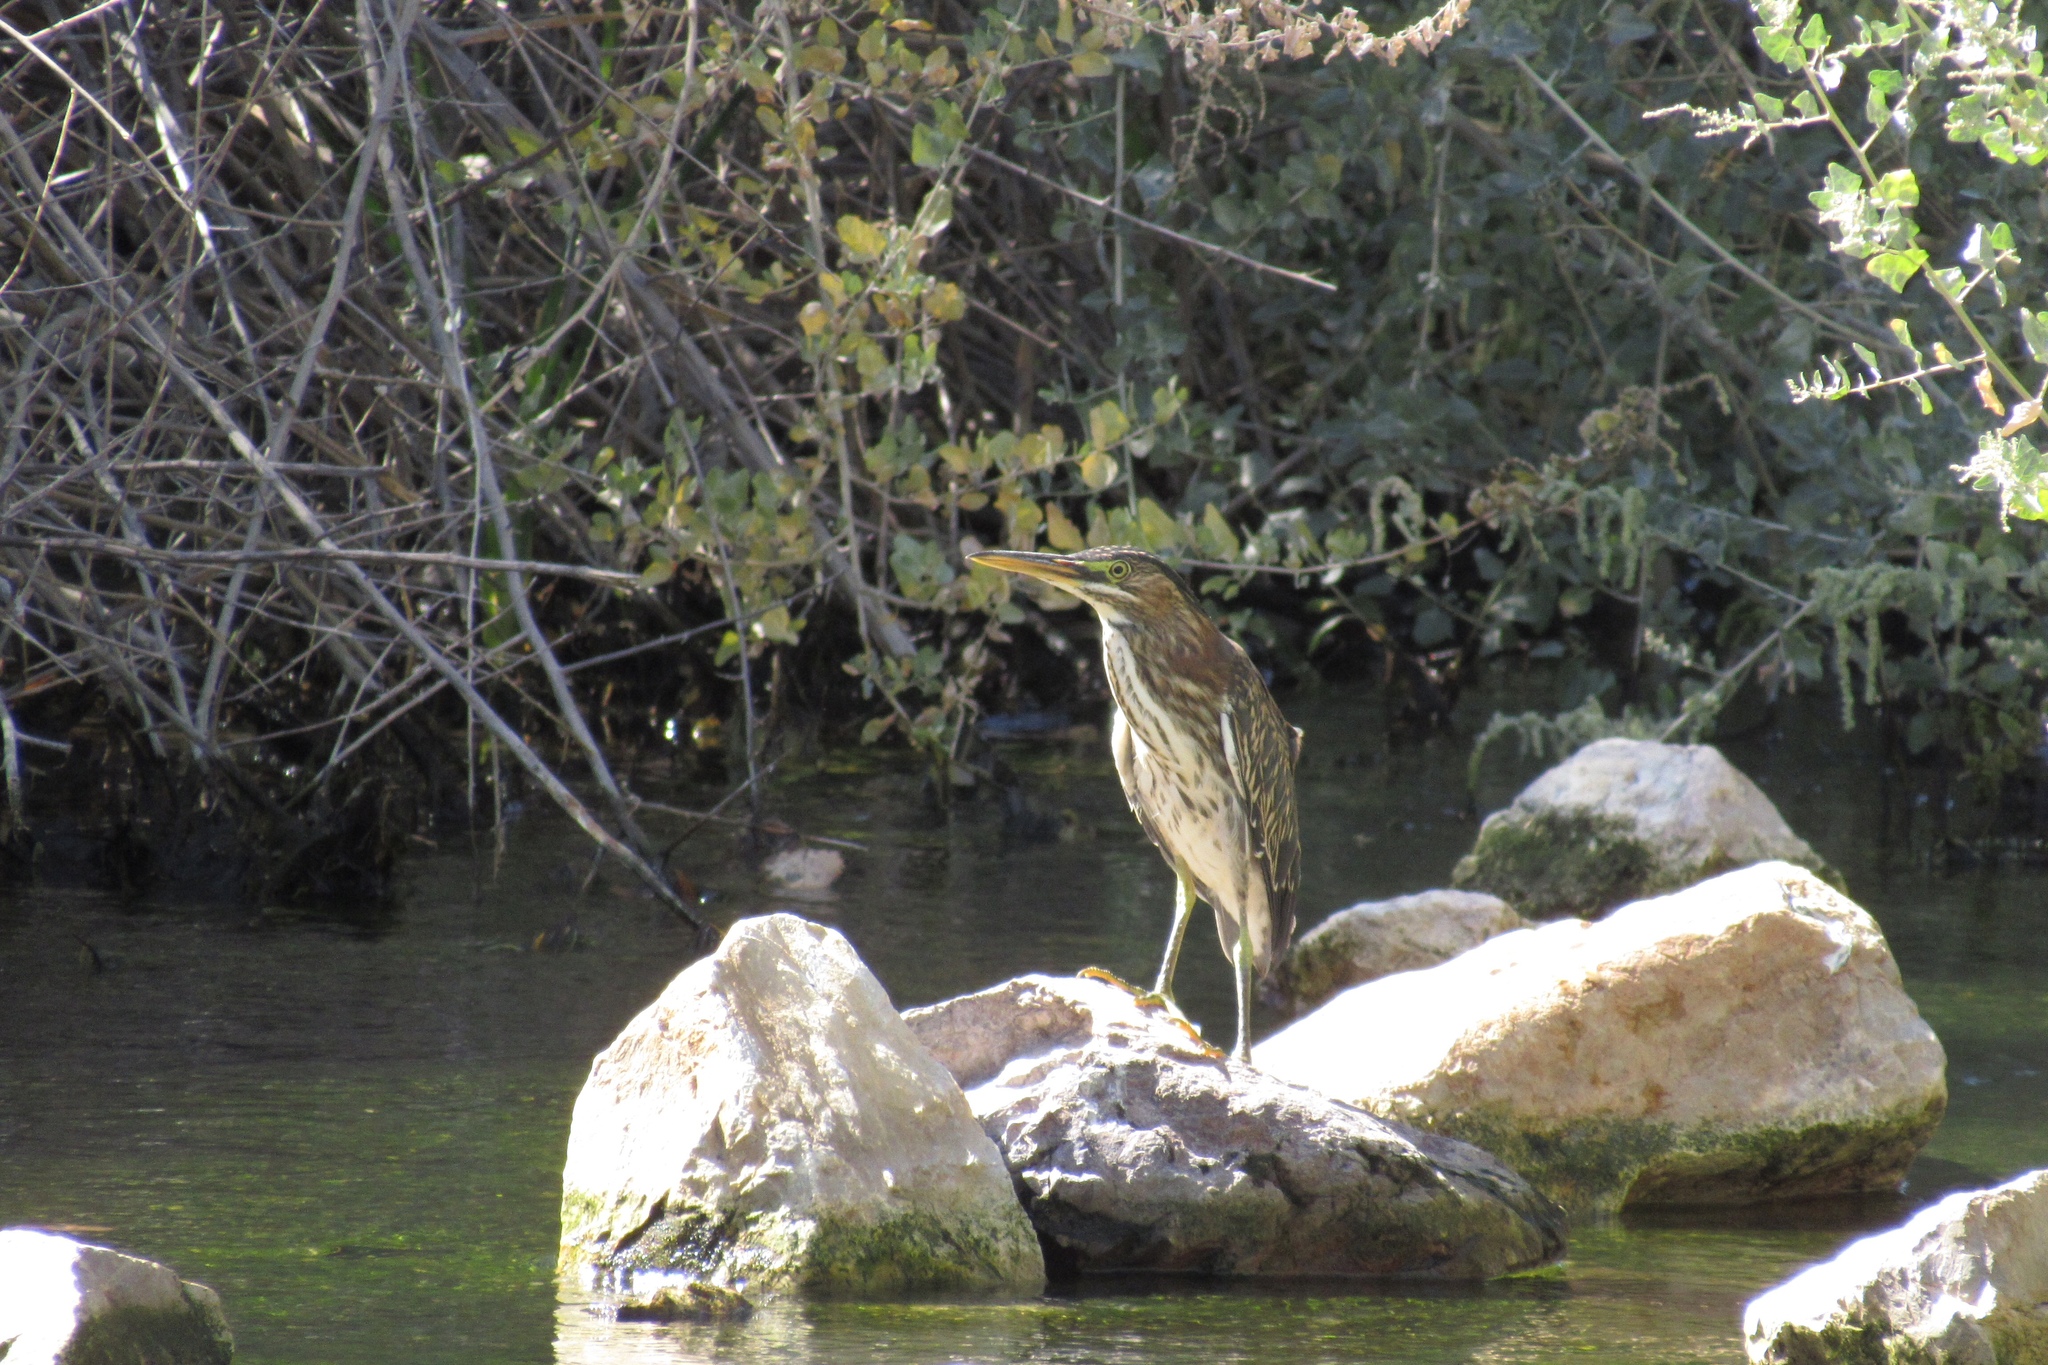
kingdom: Animalia
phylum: Chordata
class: Aves
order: Pelecaniformes
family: Ardeidae
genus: Butorides
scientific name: Butorides virescens
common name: Green heron
